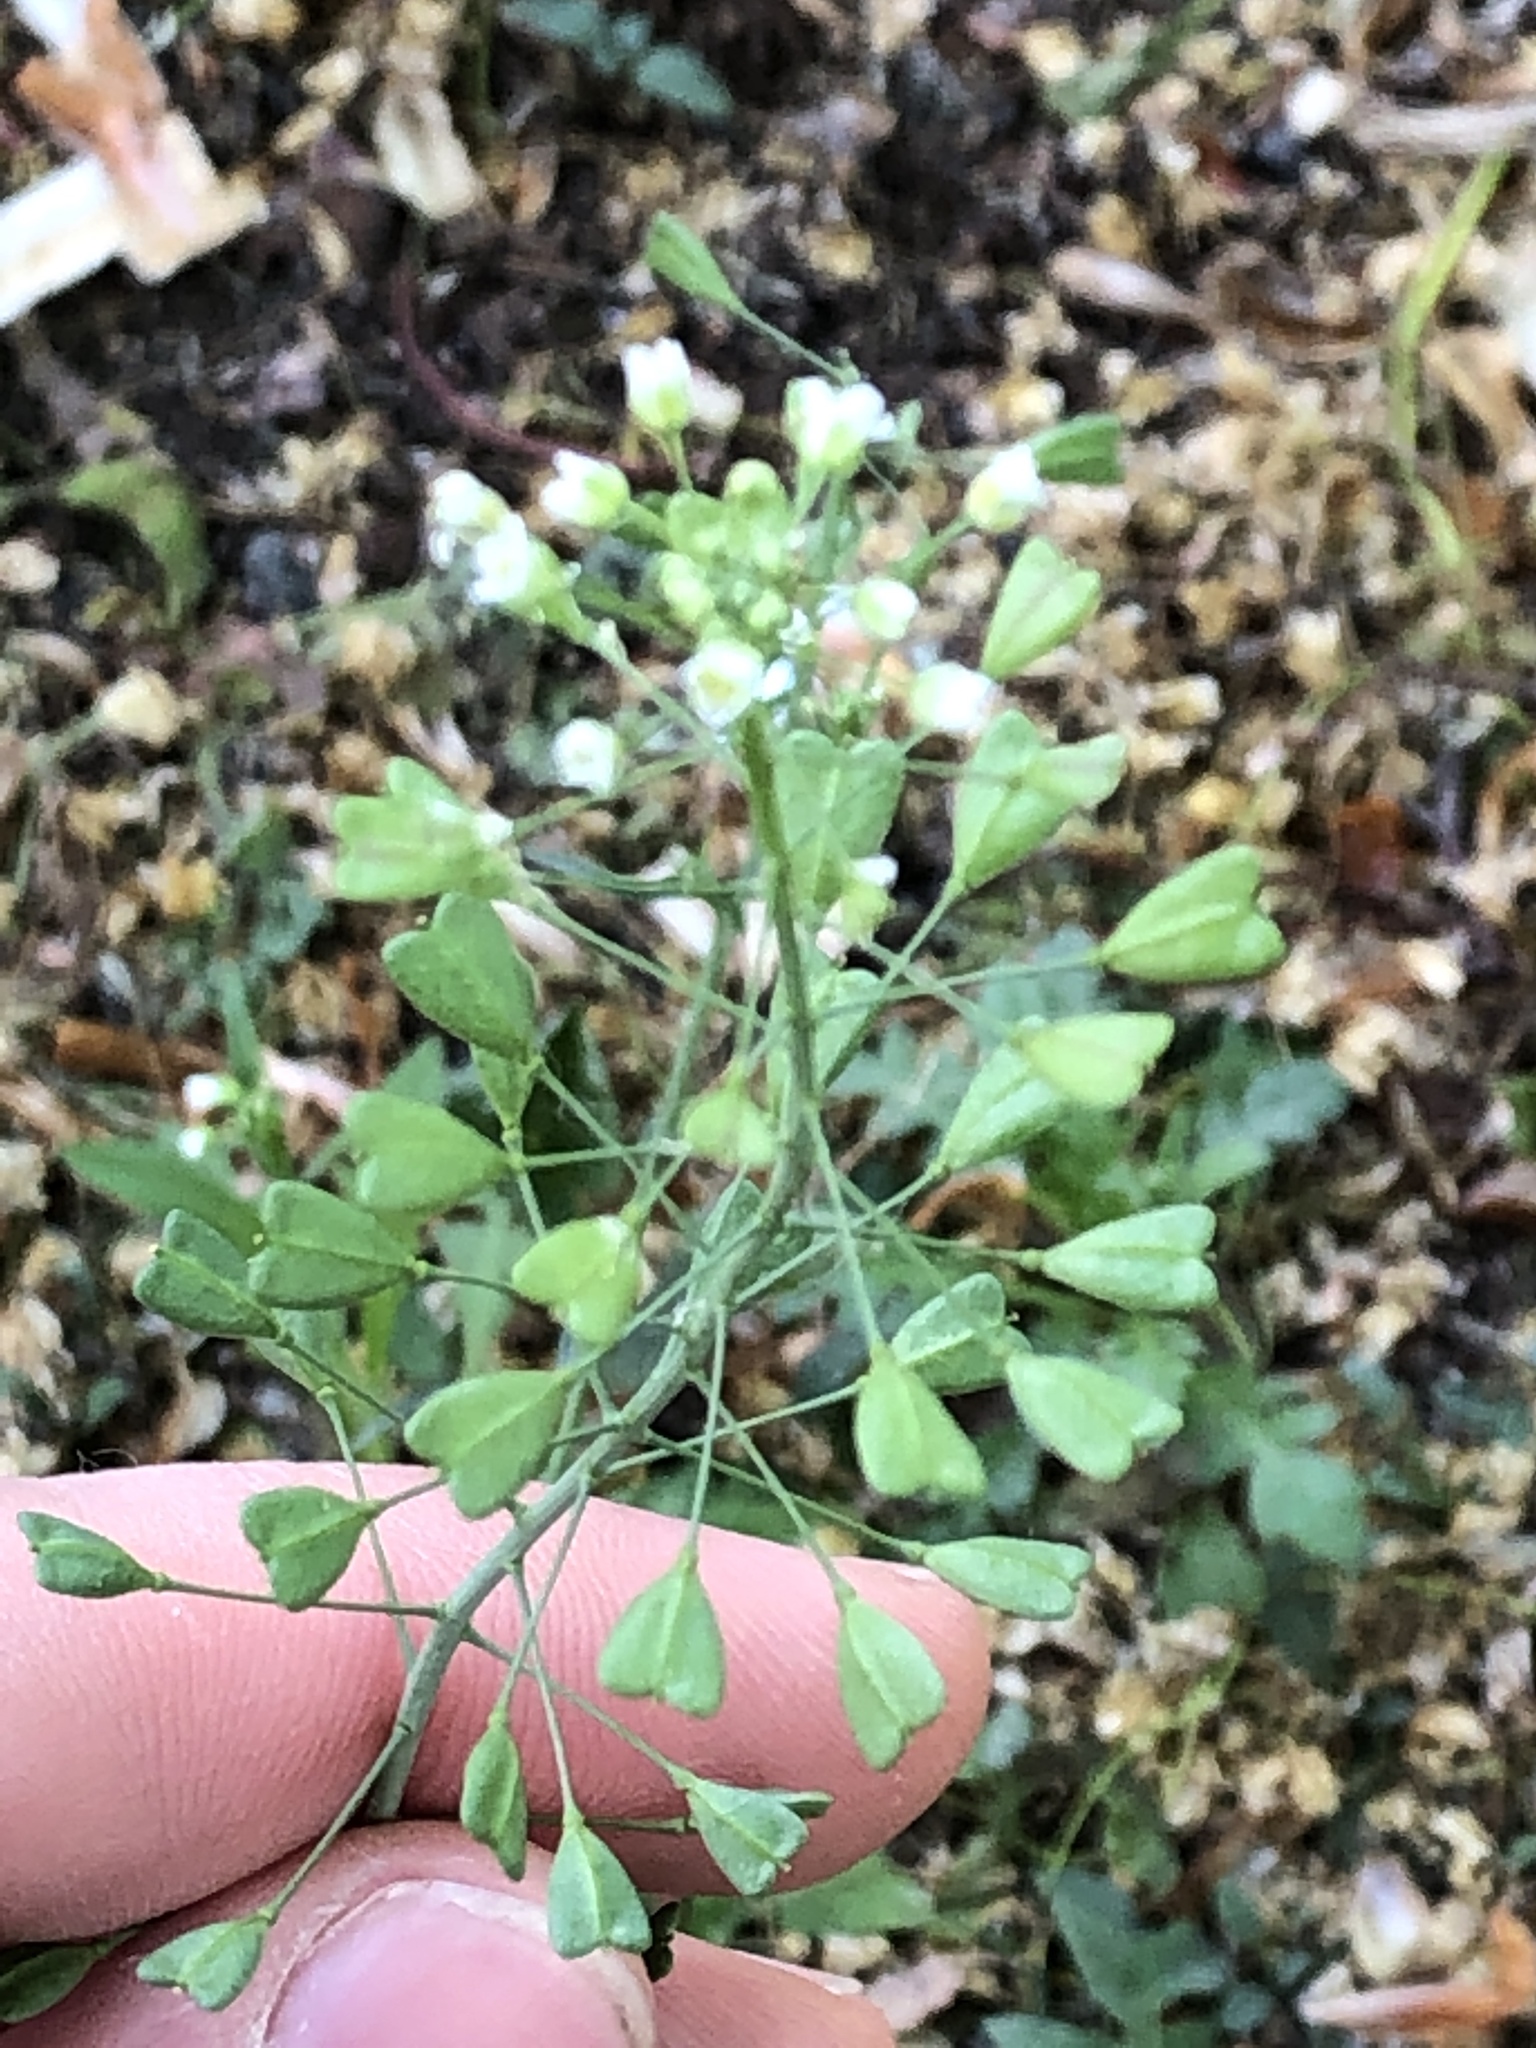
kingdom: Plantae
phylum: Tracheophyta
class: Magnoliopsida
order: Brassicales
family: Brassicaceae
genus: Capsella
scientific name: Capsella bursa-pastoris
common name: Shepherd's purse
